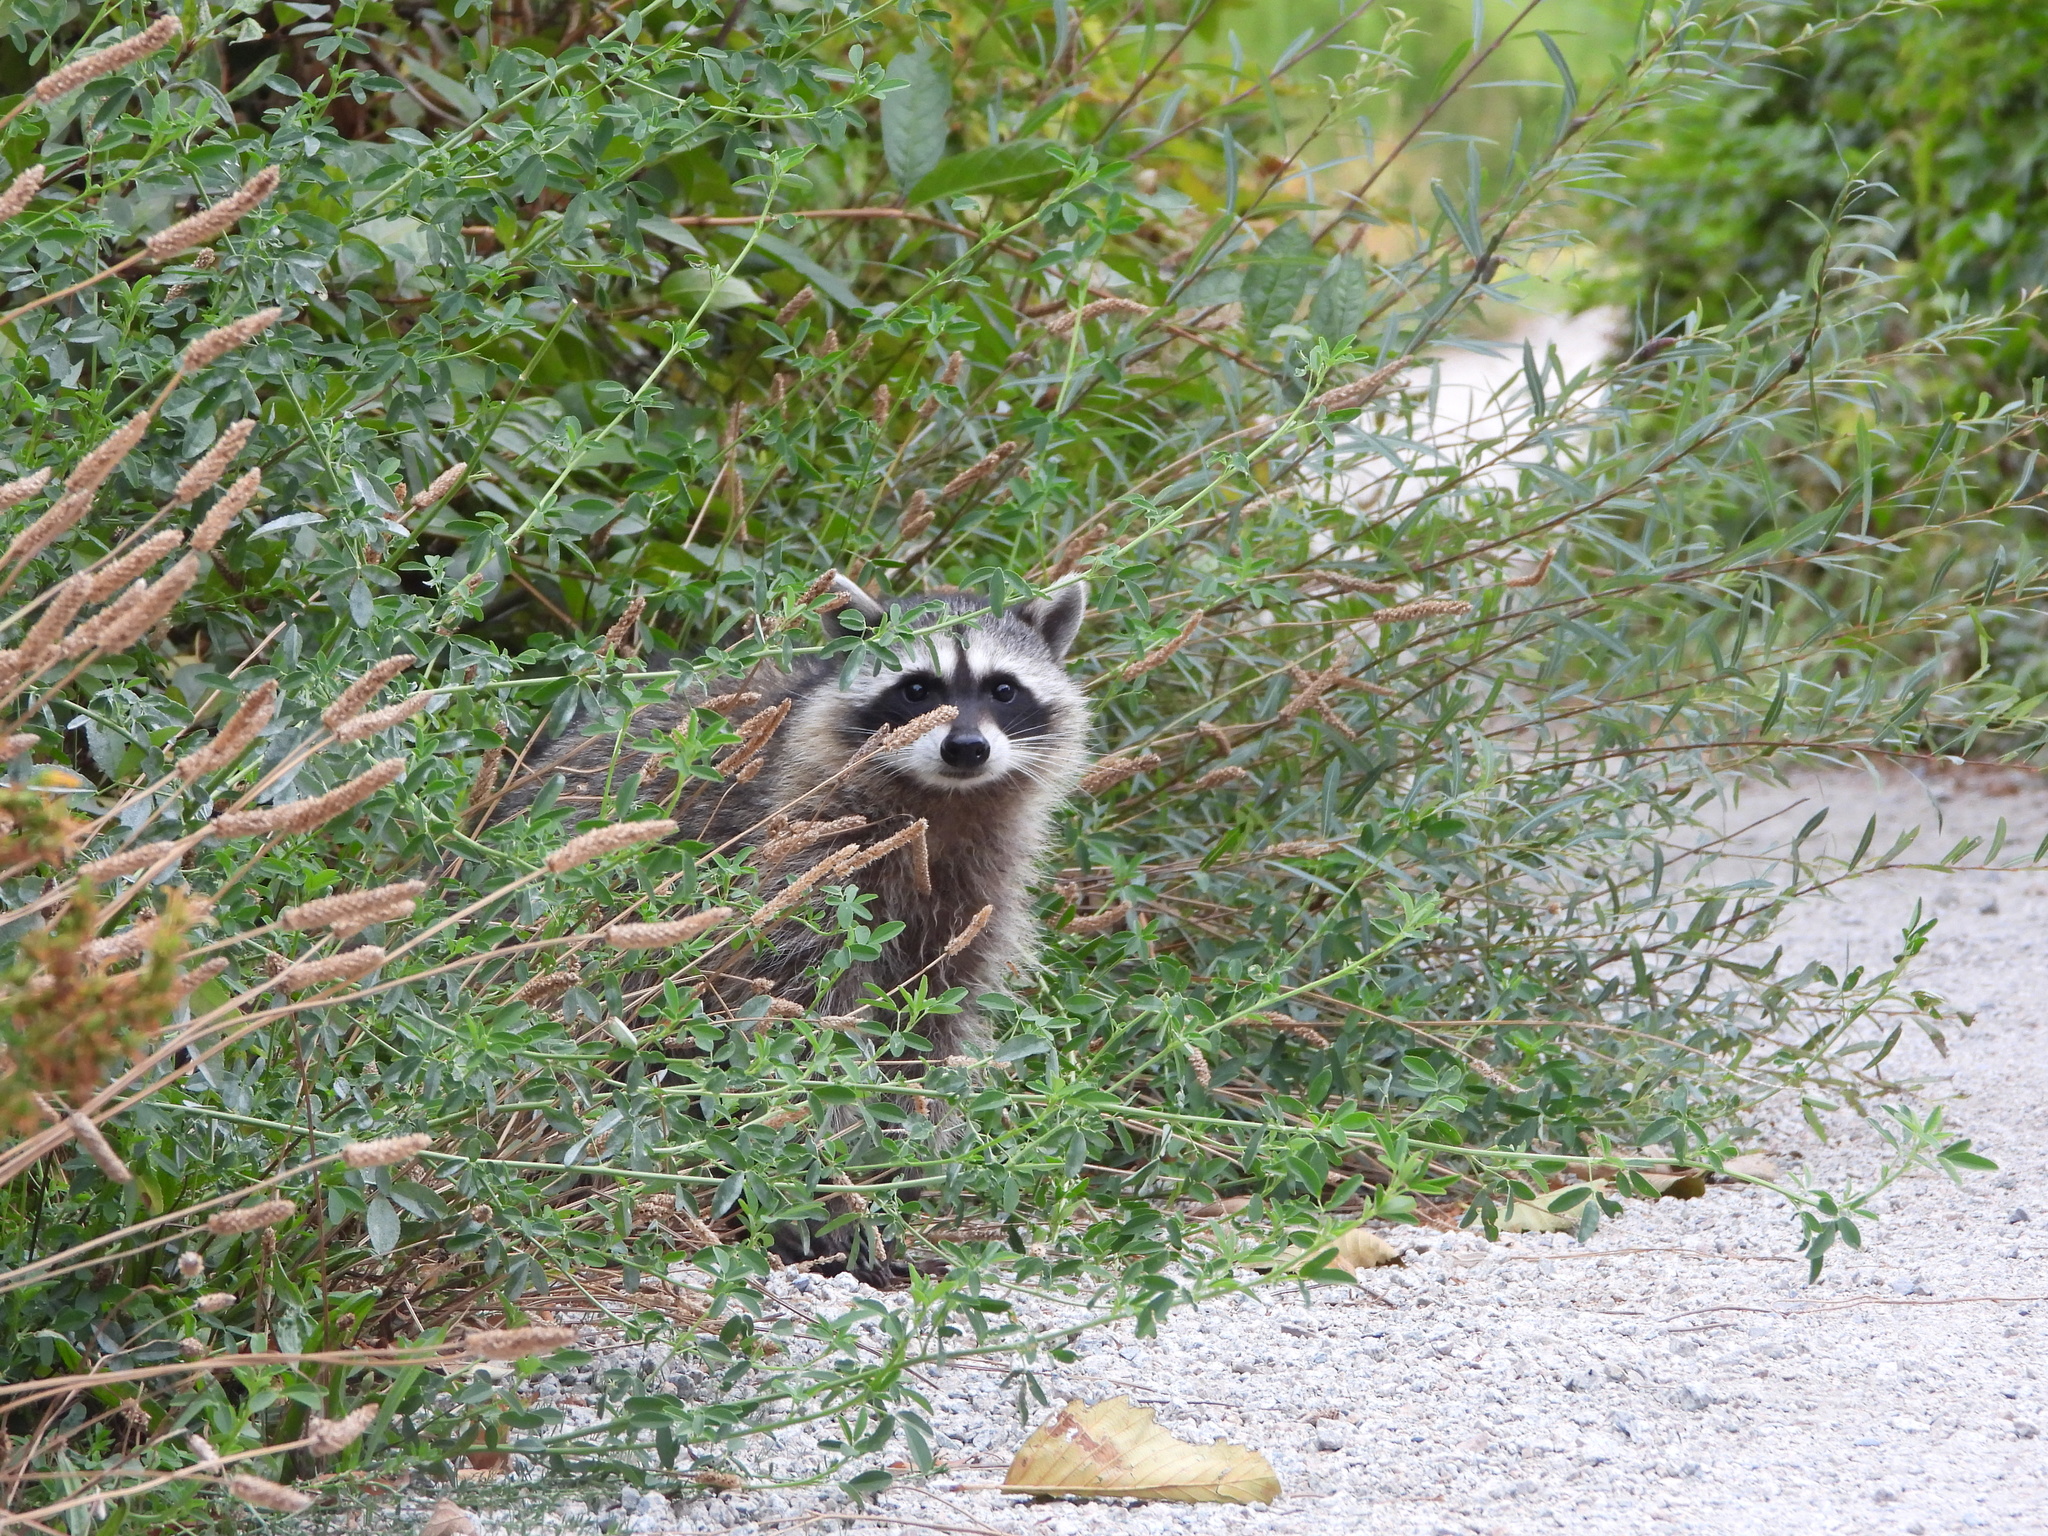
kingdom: Animalia
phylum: Chordata
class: Mammalia
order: Carnivora
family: Procyonidae
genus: Procyon
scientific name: Procyon lotor
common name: Raccoon
